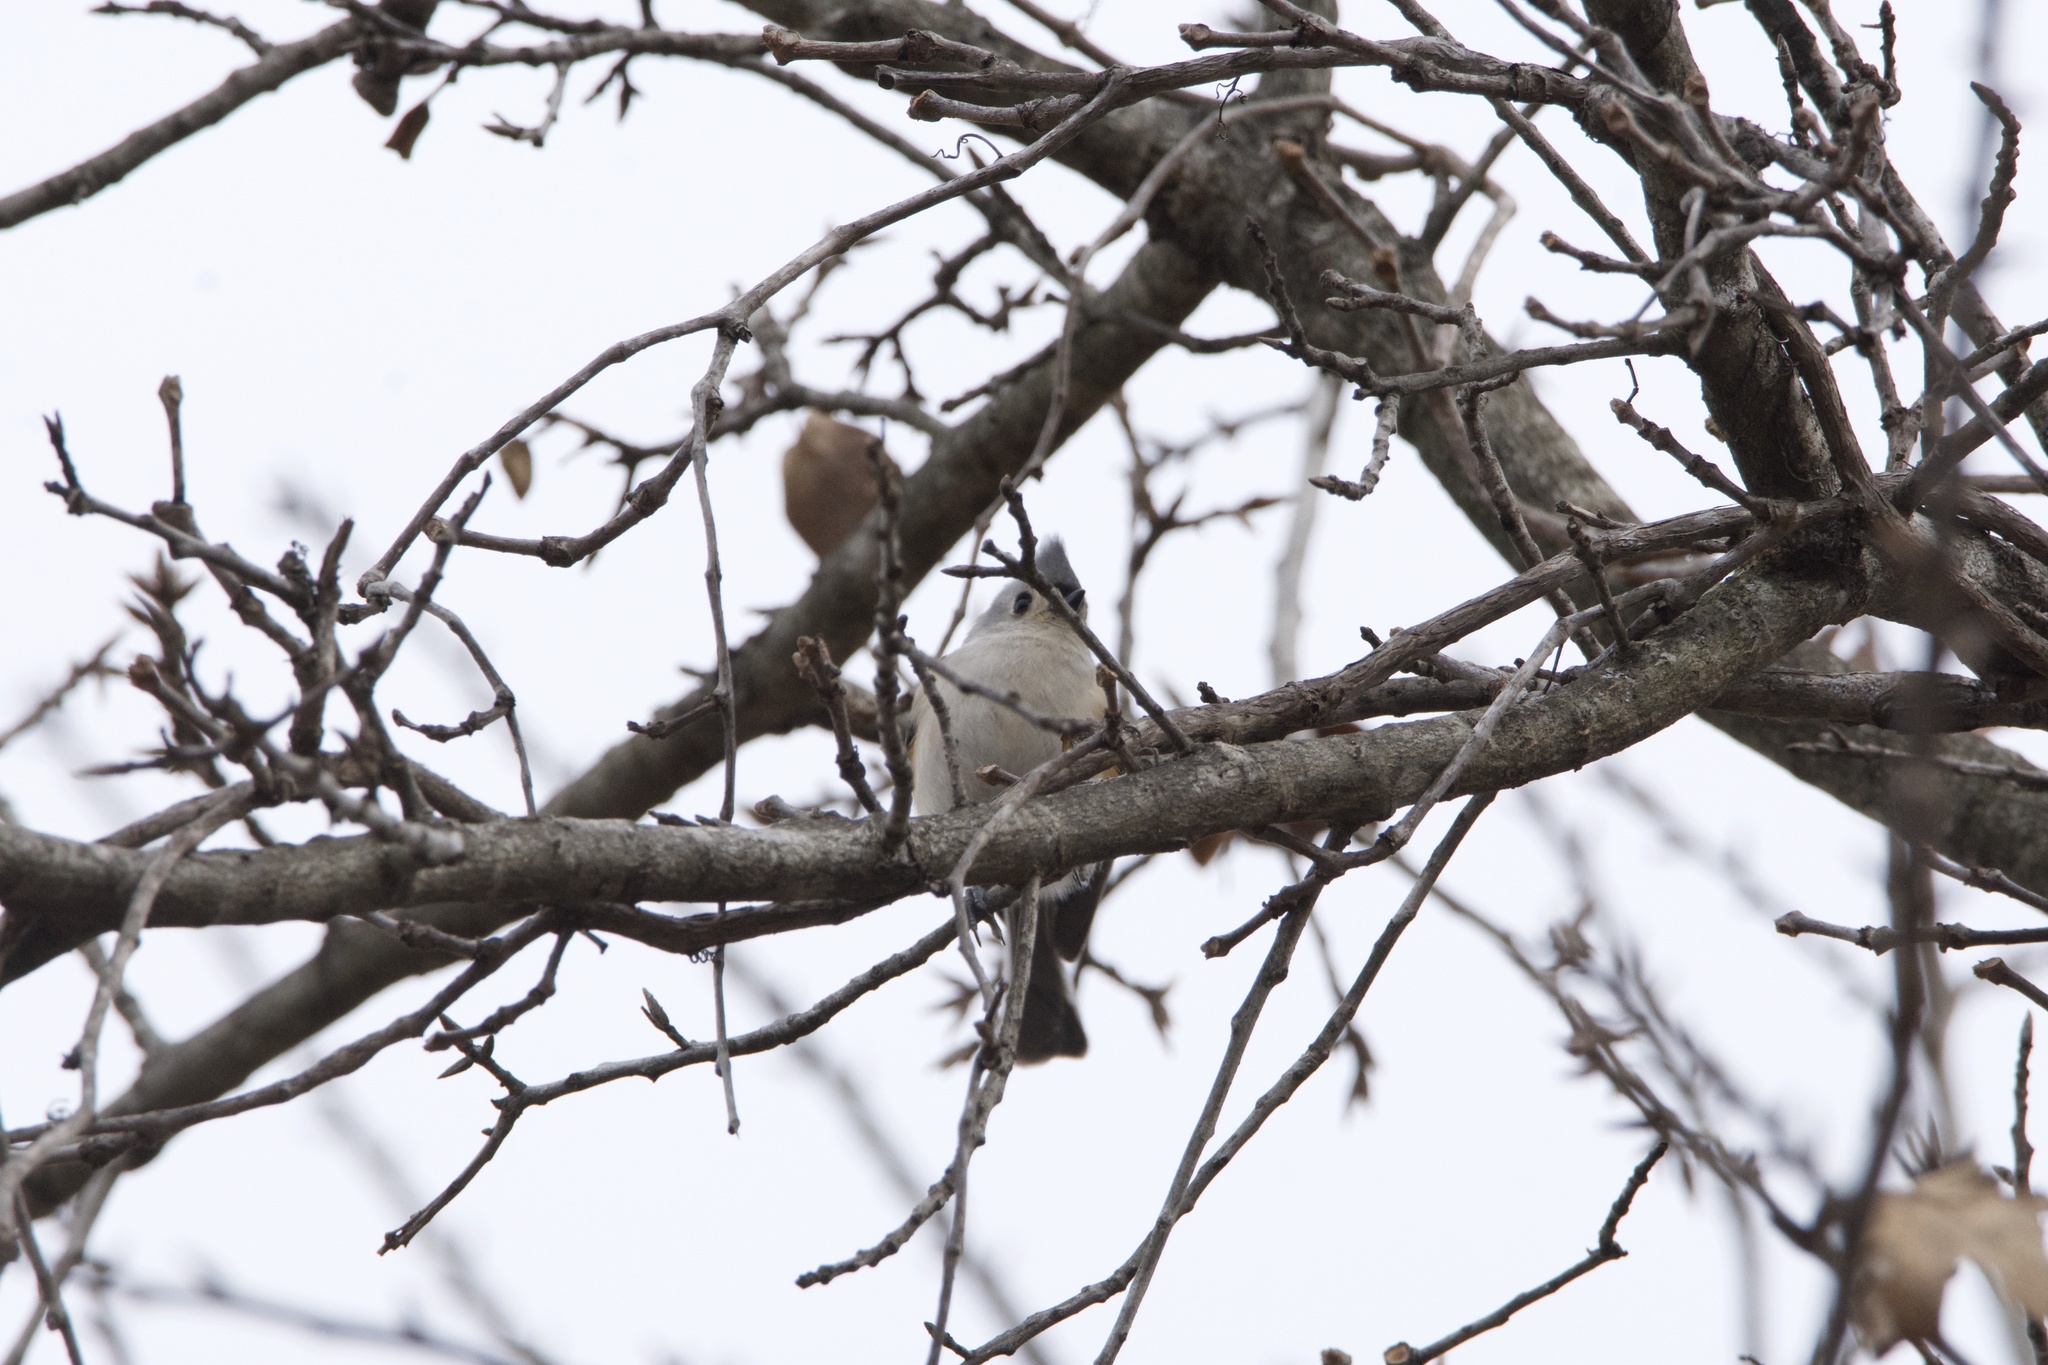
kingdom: Animalia
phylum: Chordata
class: Aves
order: Passeriformes
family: Paridae
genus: Baeolophus
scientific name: Baeolophus bicolor
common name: Tufted titmouse
